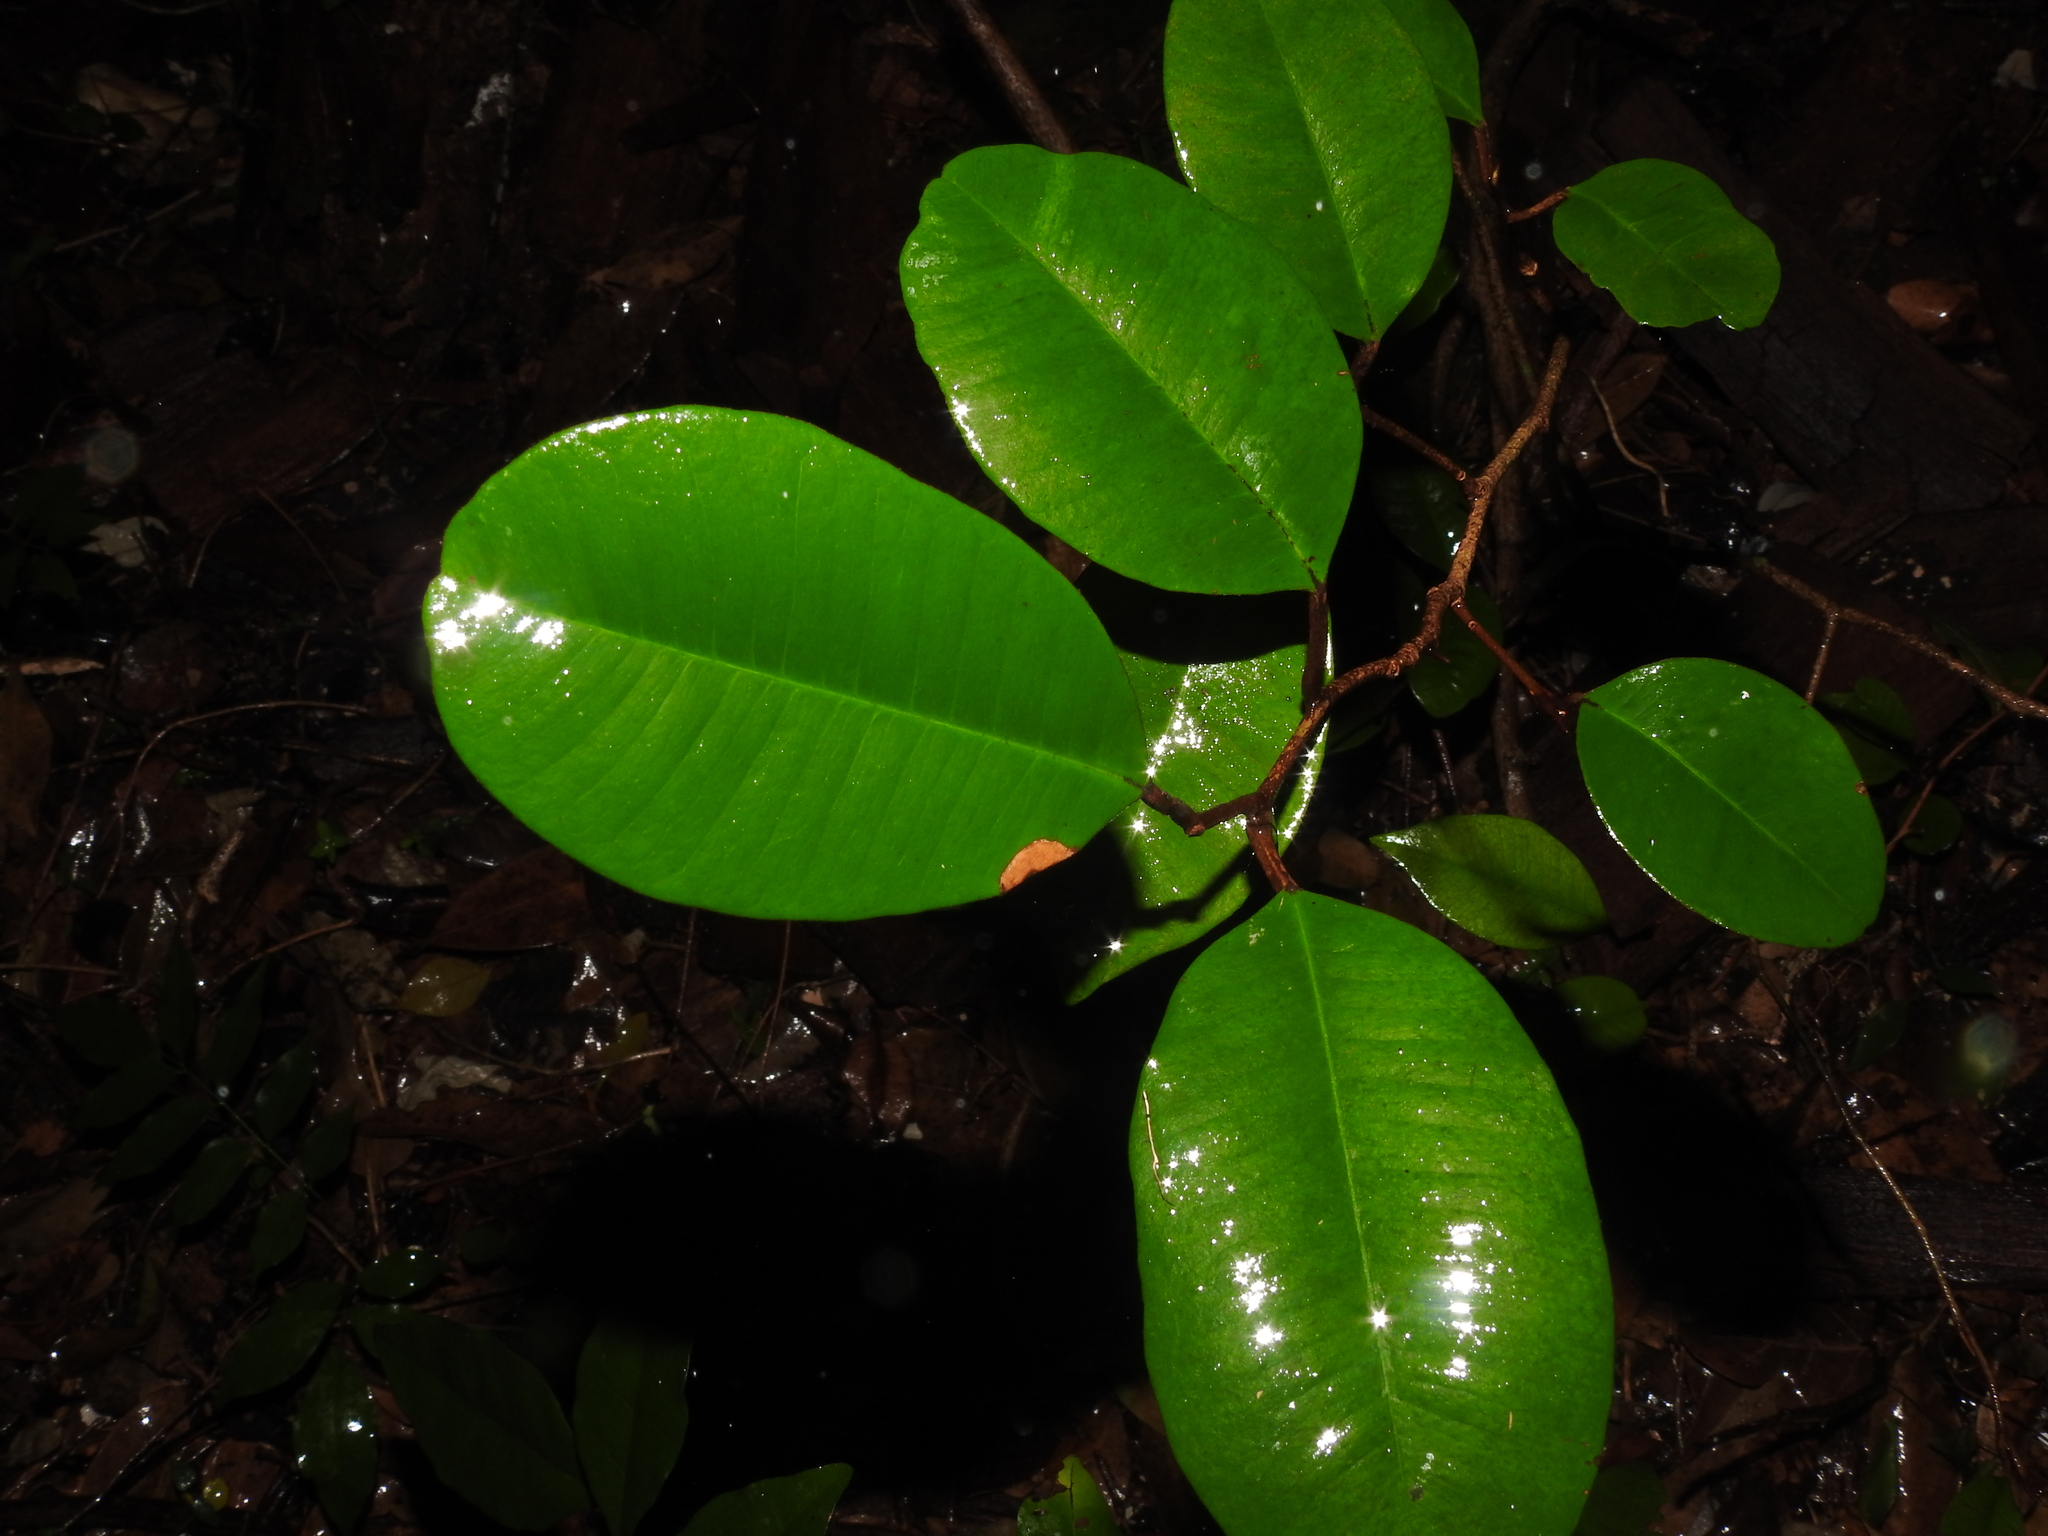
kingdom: Plantae
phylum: Tracheophyta
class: Magnoliopsida
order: Ericales
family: Sapotaceae
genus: Chrysophyllum
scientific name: Chrysophyllum oliviforme
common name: Satinleaf
